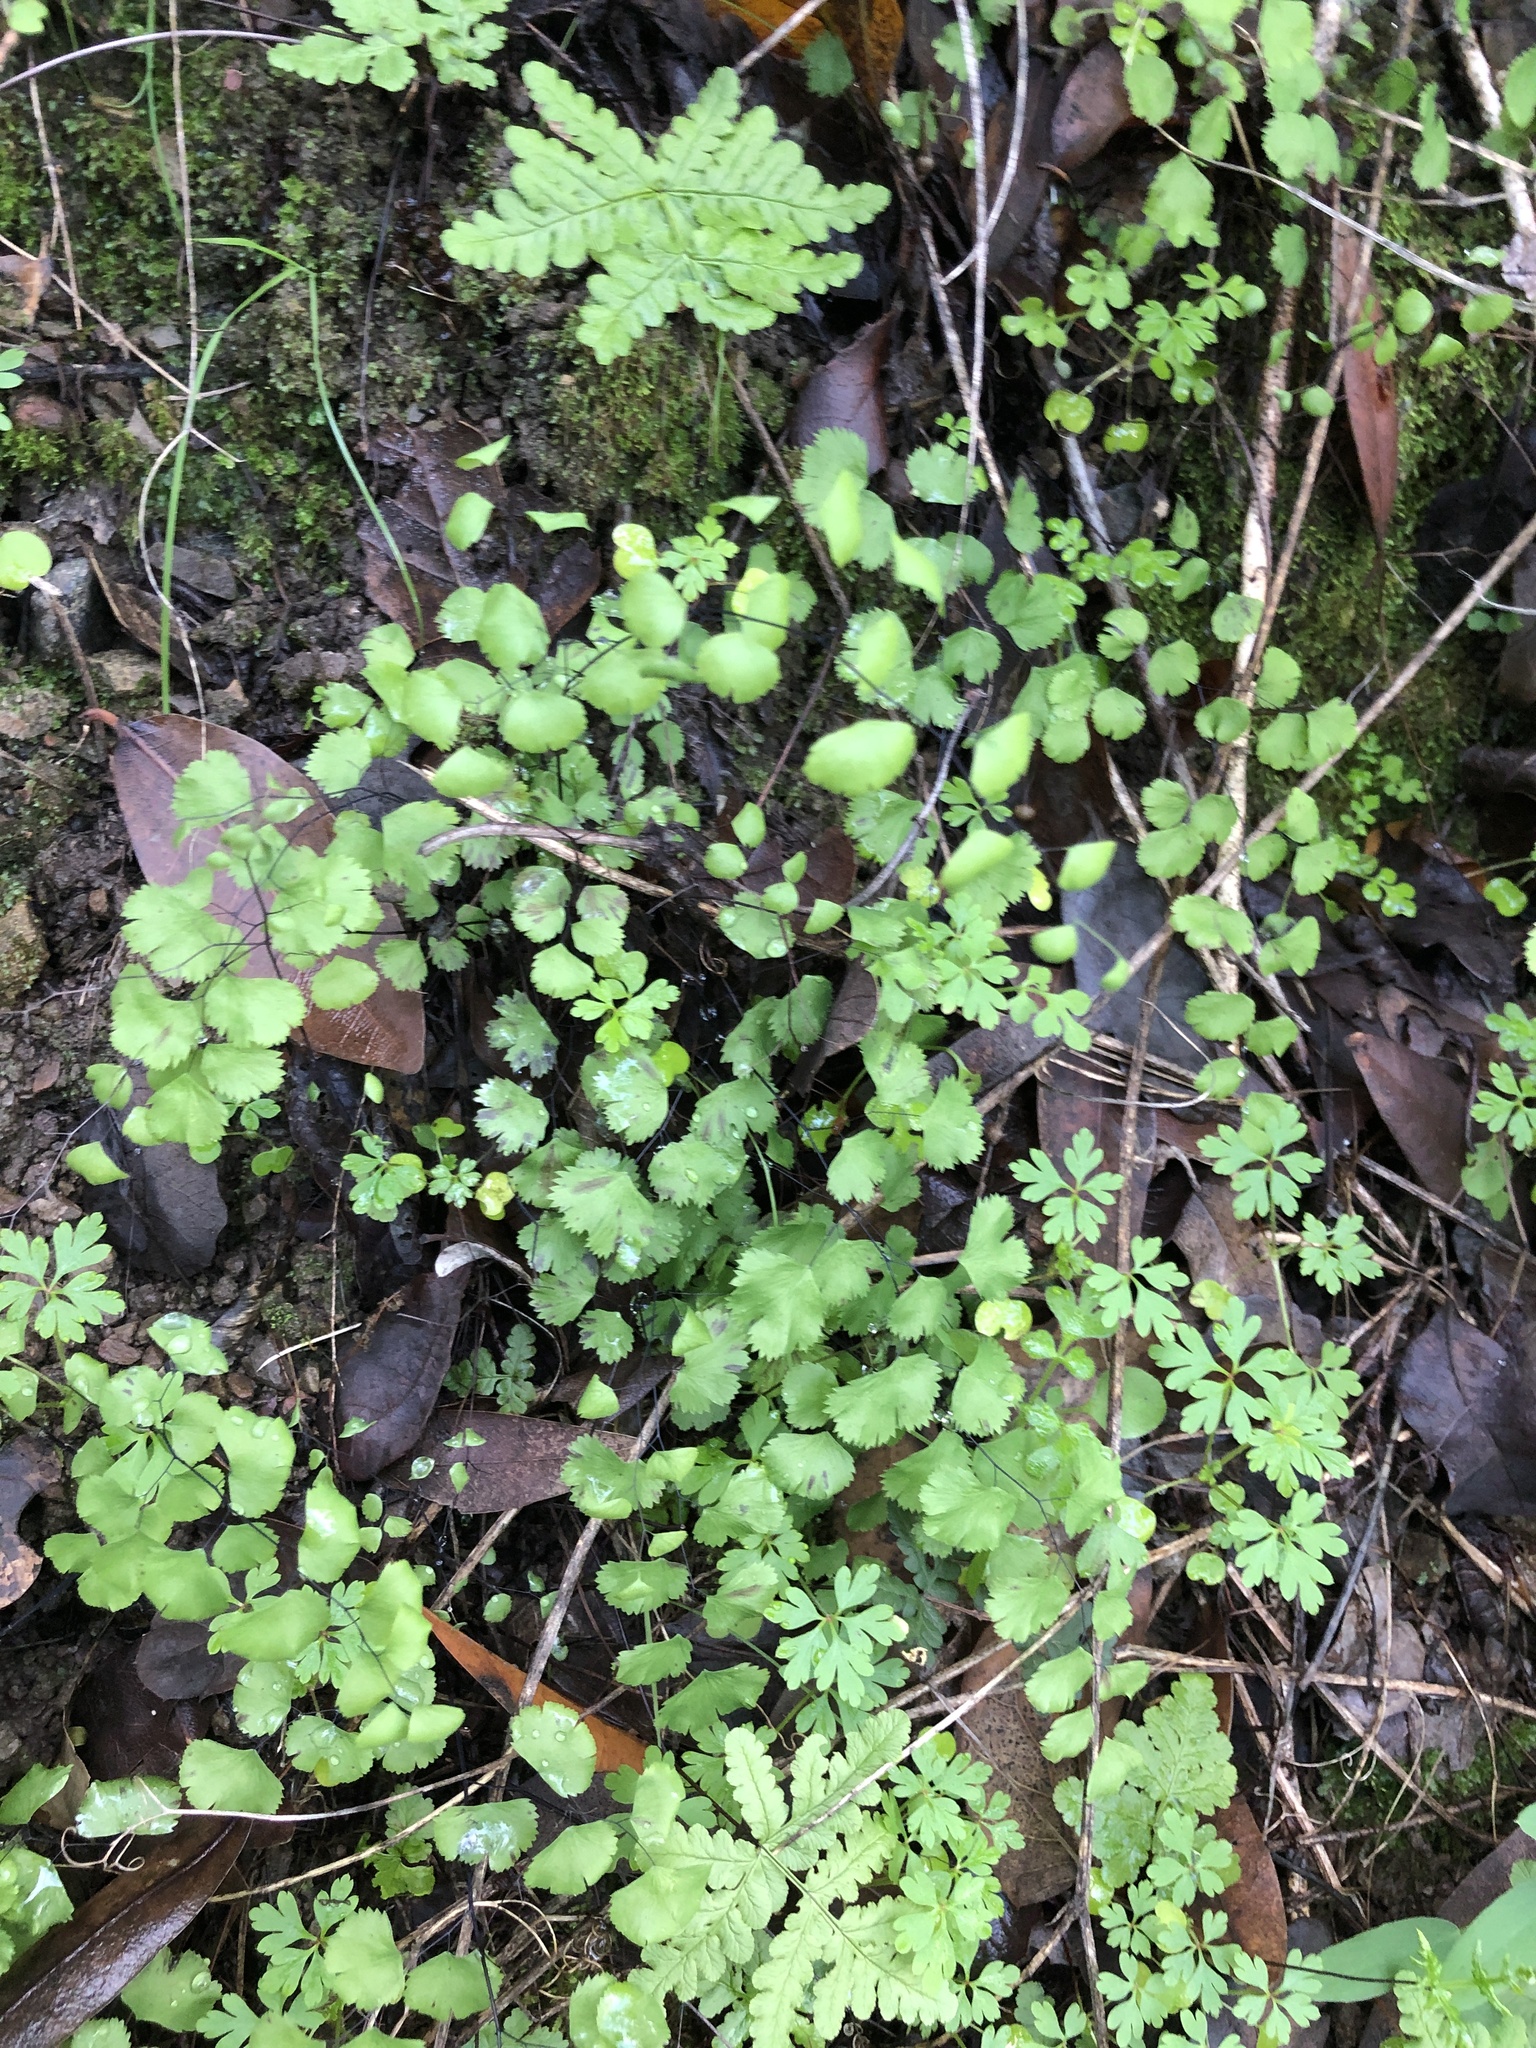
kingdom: Plantae
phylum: Tracheophyta
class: Polypodiopsida
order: Polypodiales
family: Pteridaceae
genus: Adiantum
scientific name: Adiantum jordanii
